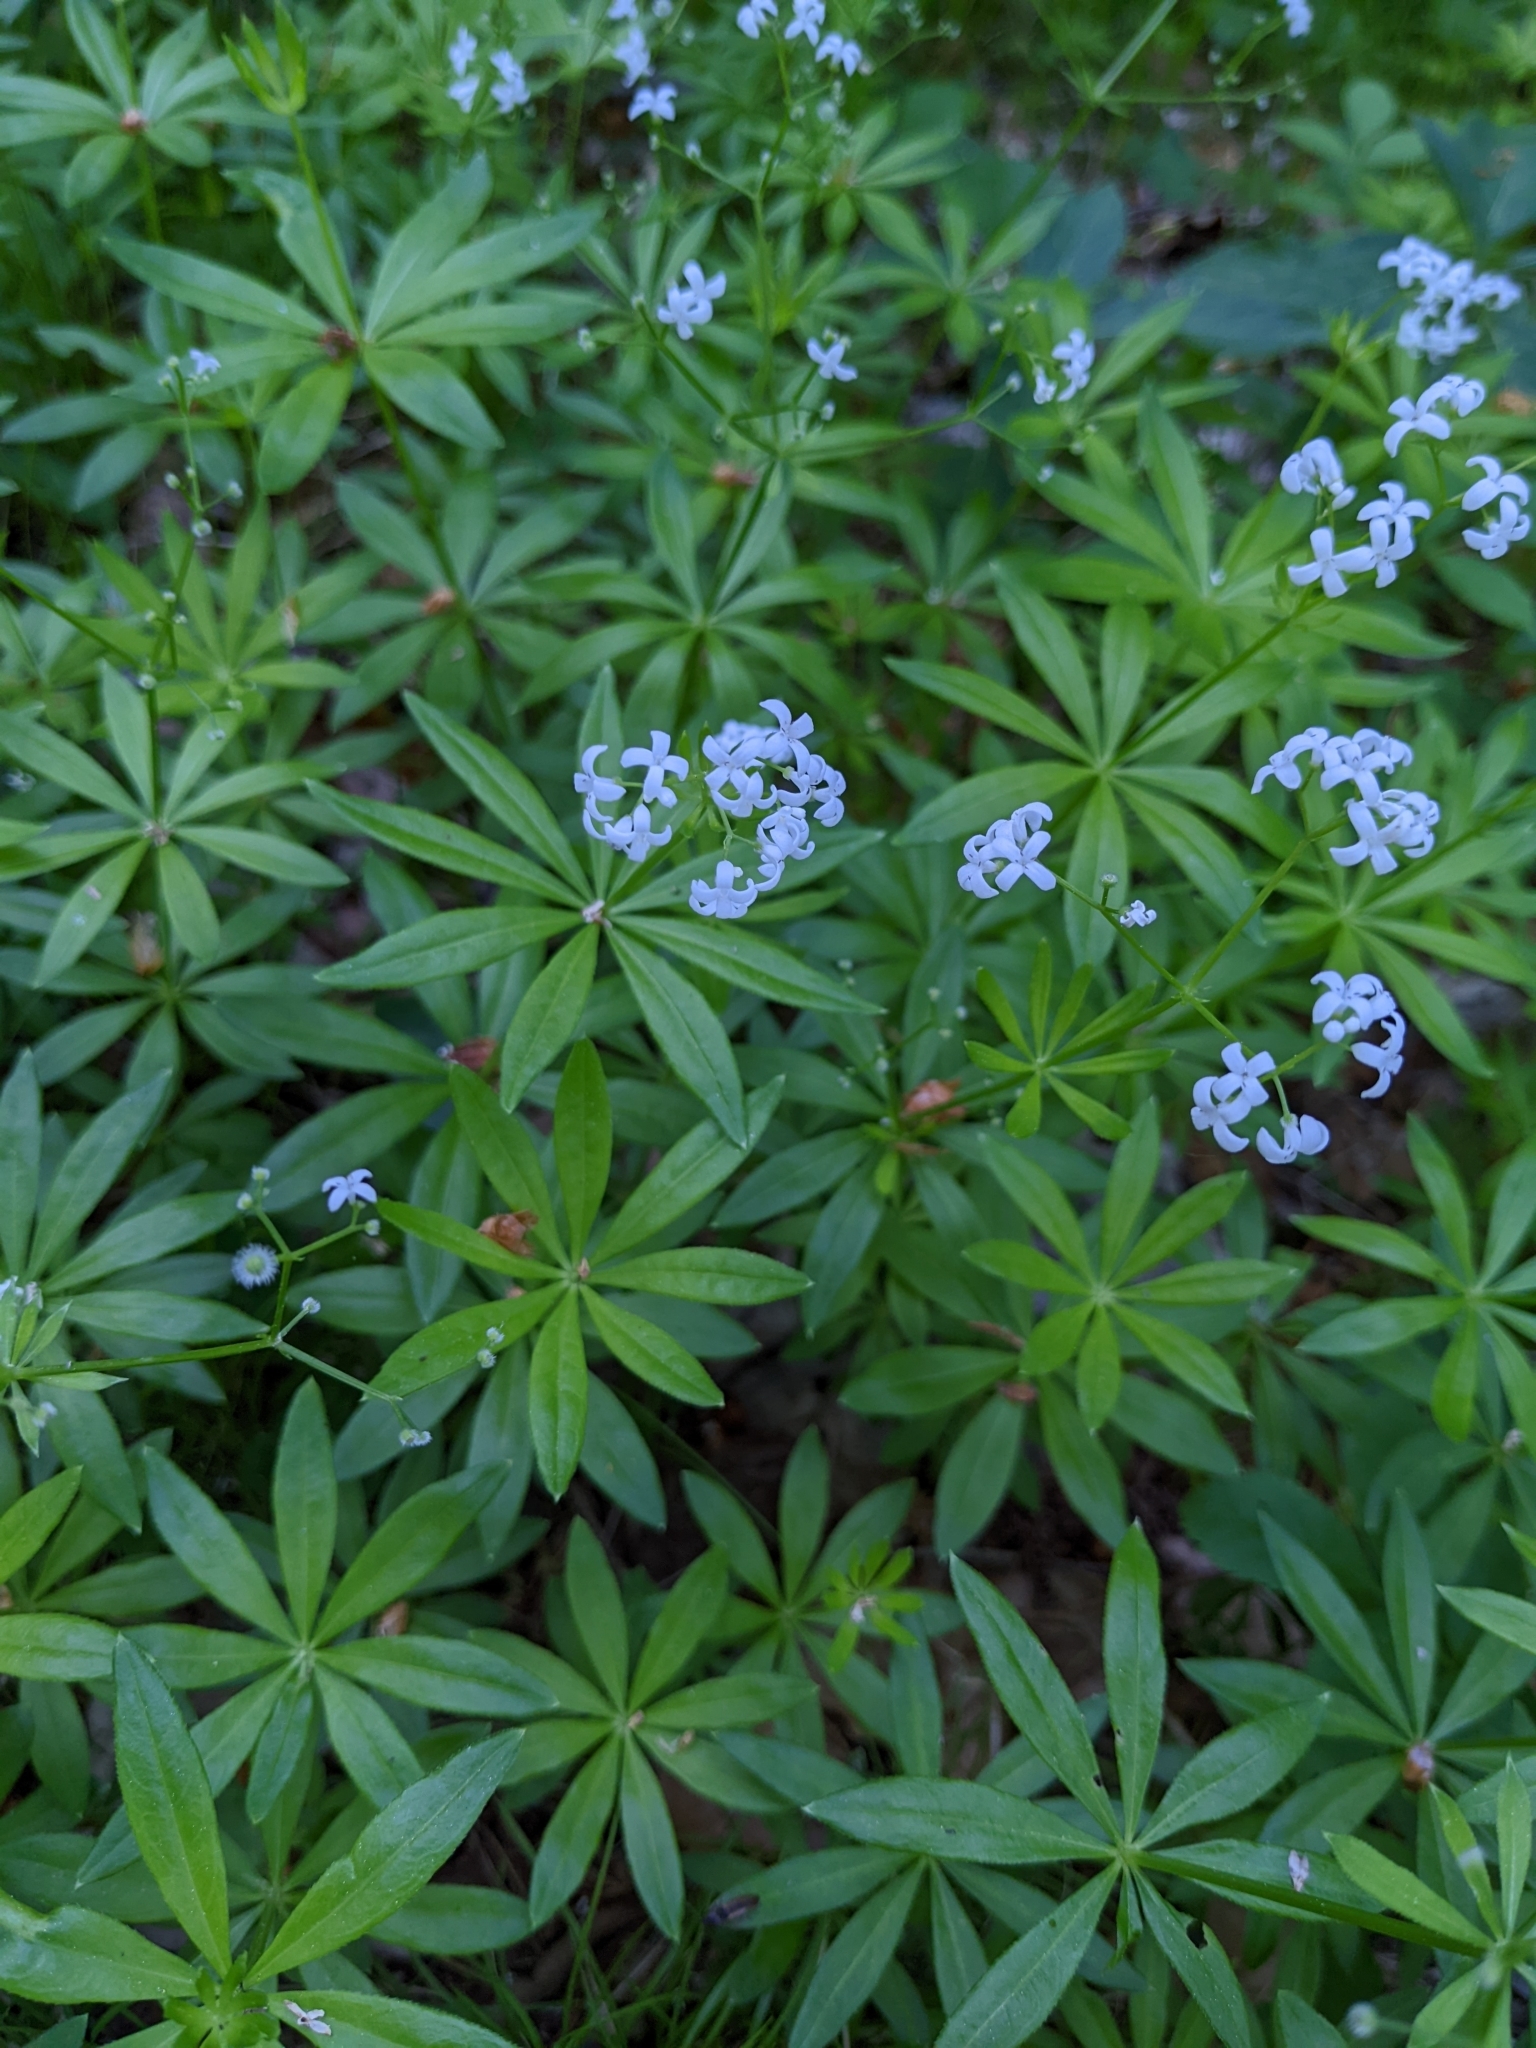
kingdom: Plantae
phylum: Tracheophyta
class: Magnoliopsida
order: Gentianales
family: Rubiaceae
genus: Galium
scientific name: Galium odoratum
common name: Sweet woodruff
